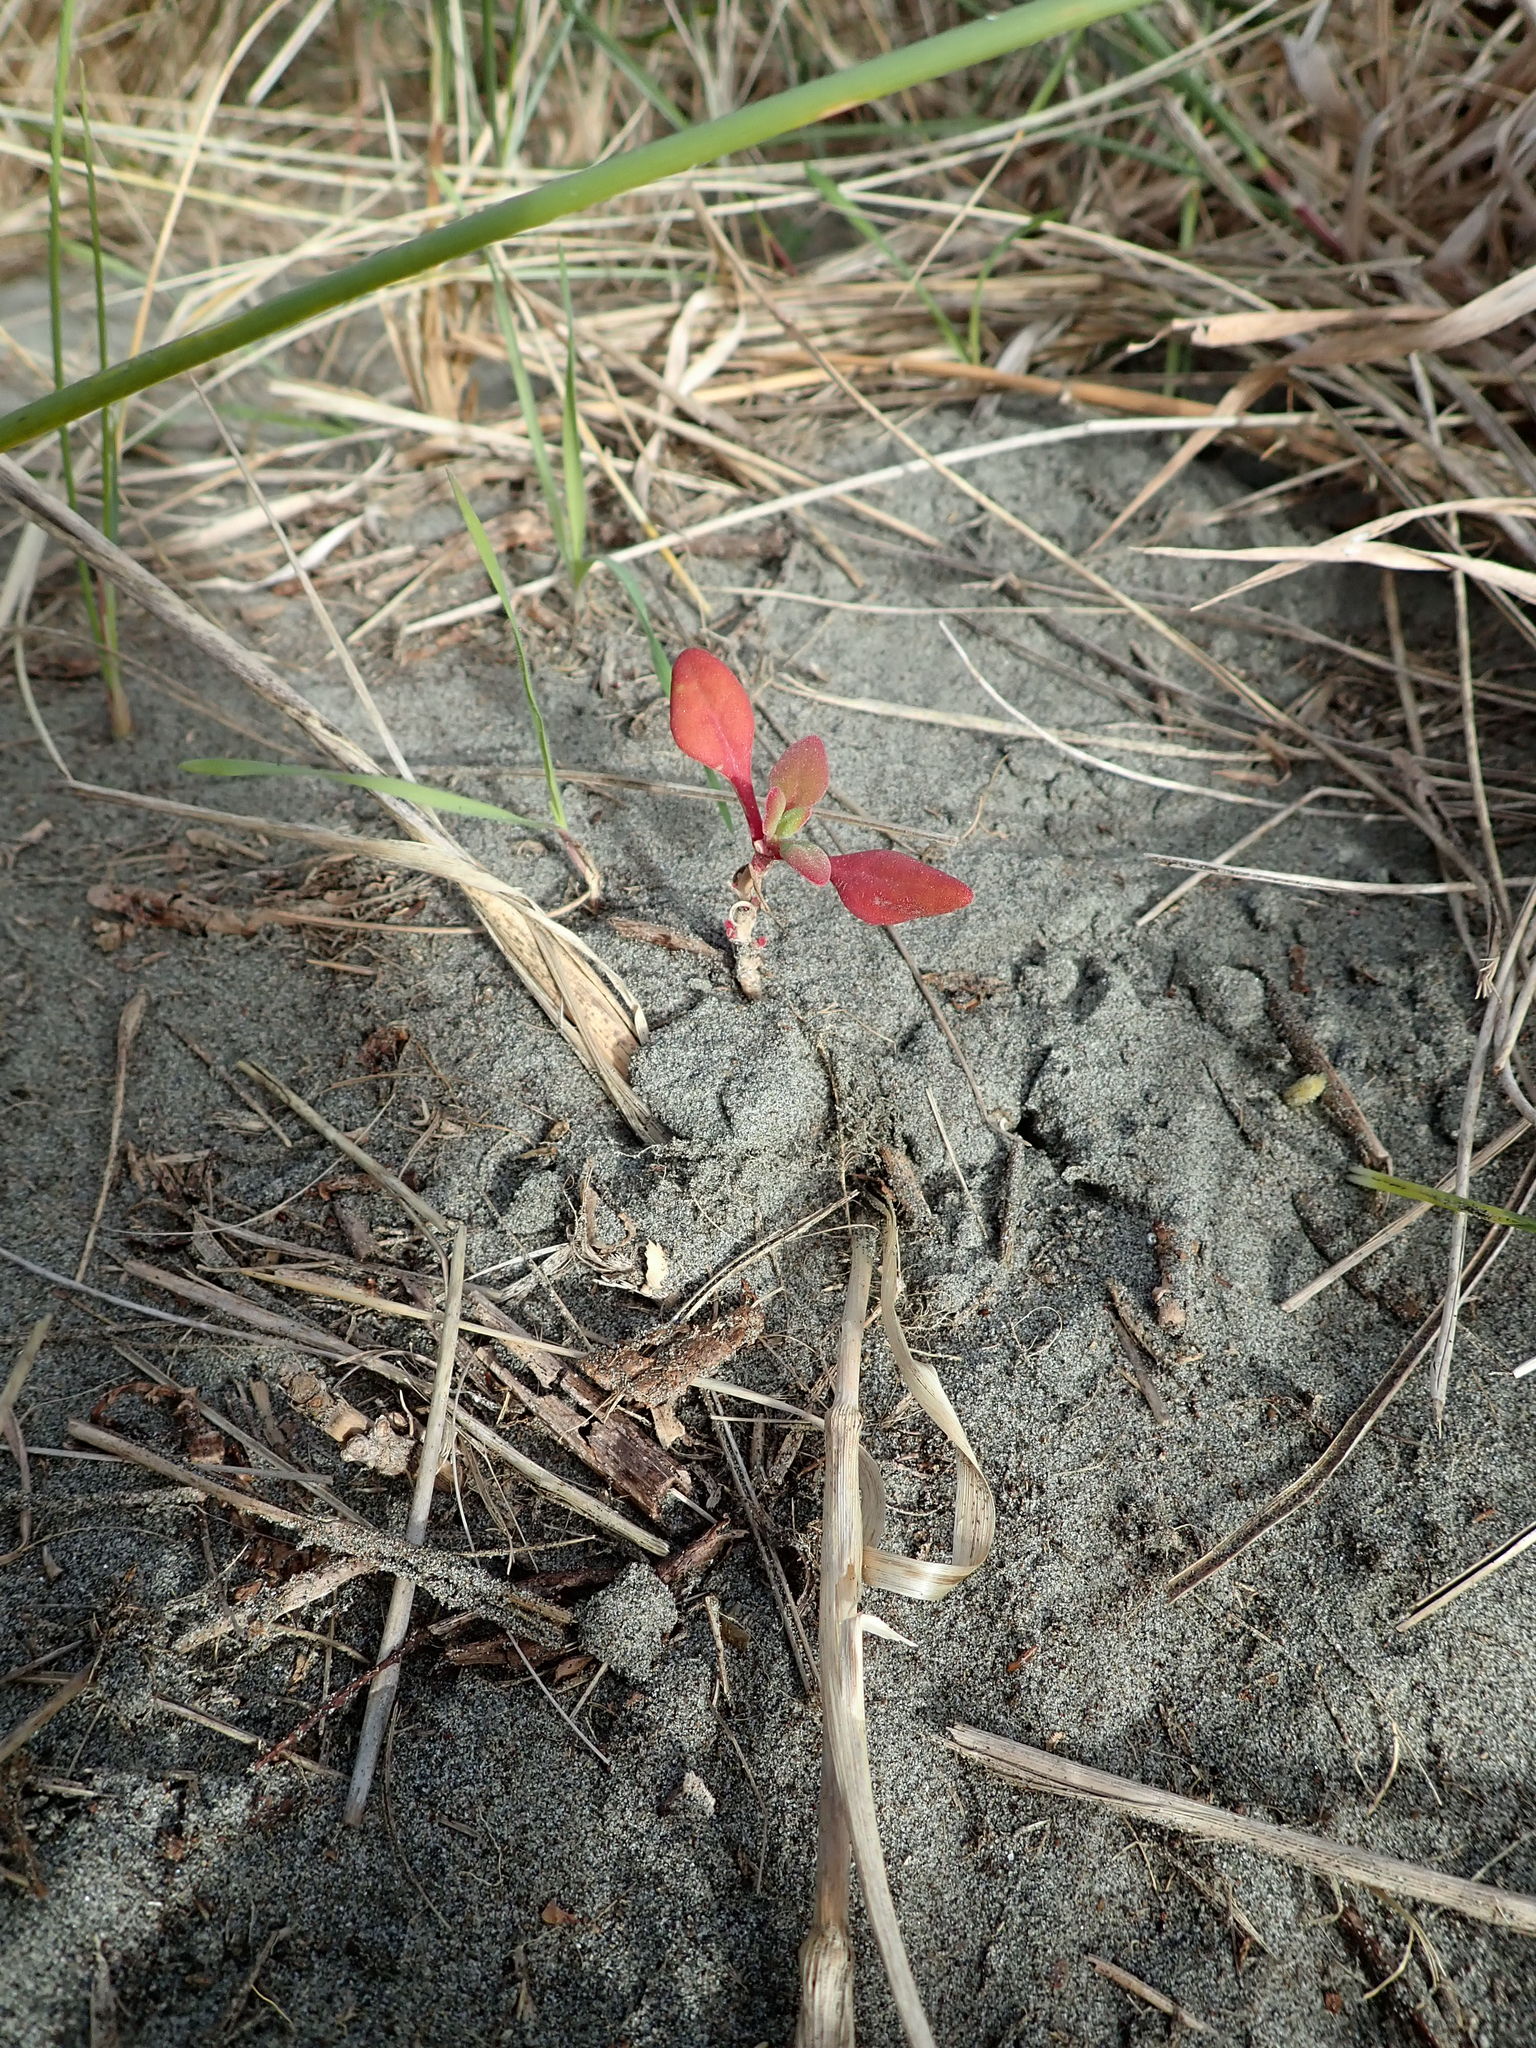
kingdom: Plantae
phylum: Tracheophyta
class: Magnoliopsida
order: Caryophyllales
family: Aizoaceae
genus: Tetragonia
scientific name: Tetragonia implexicoma
